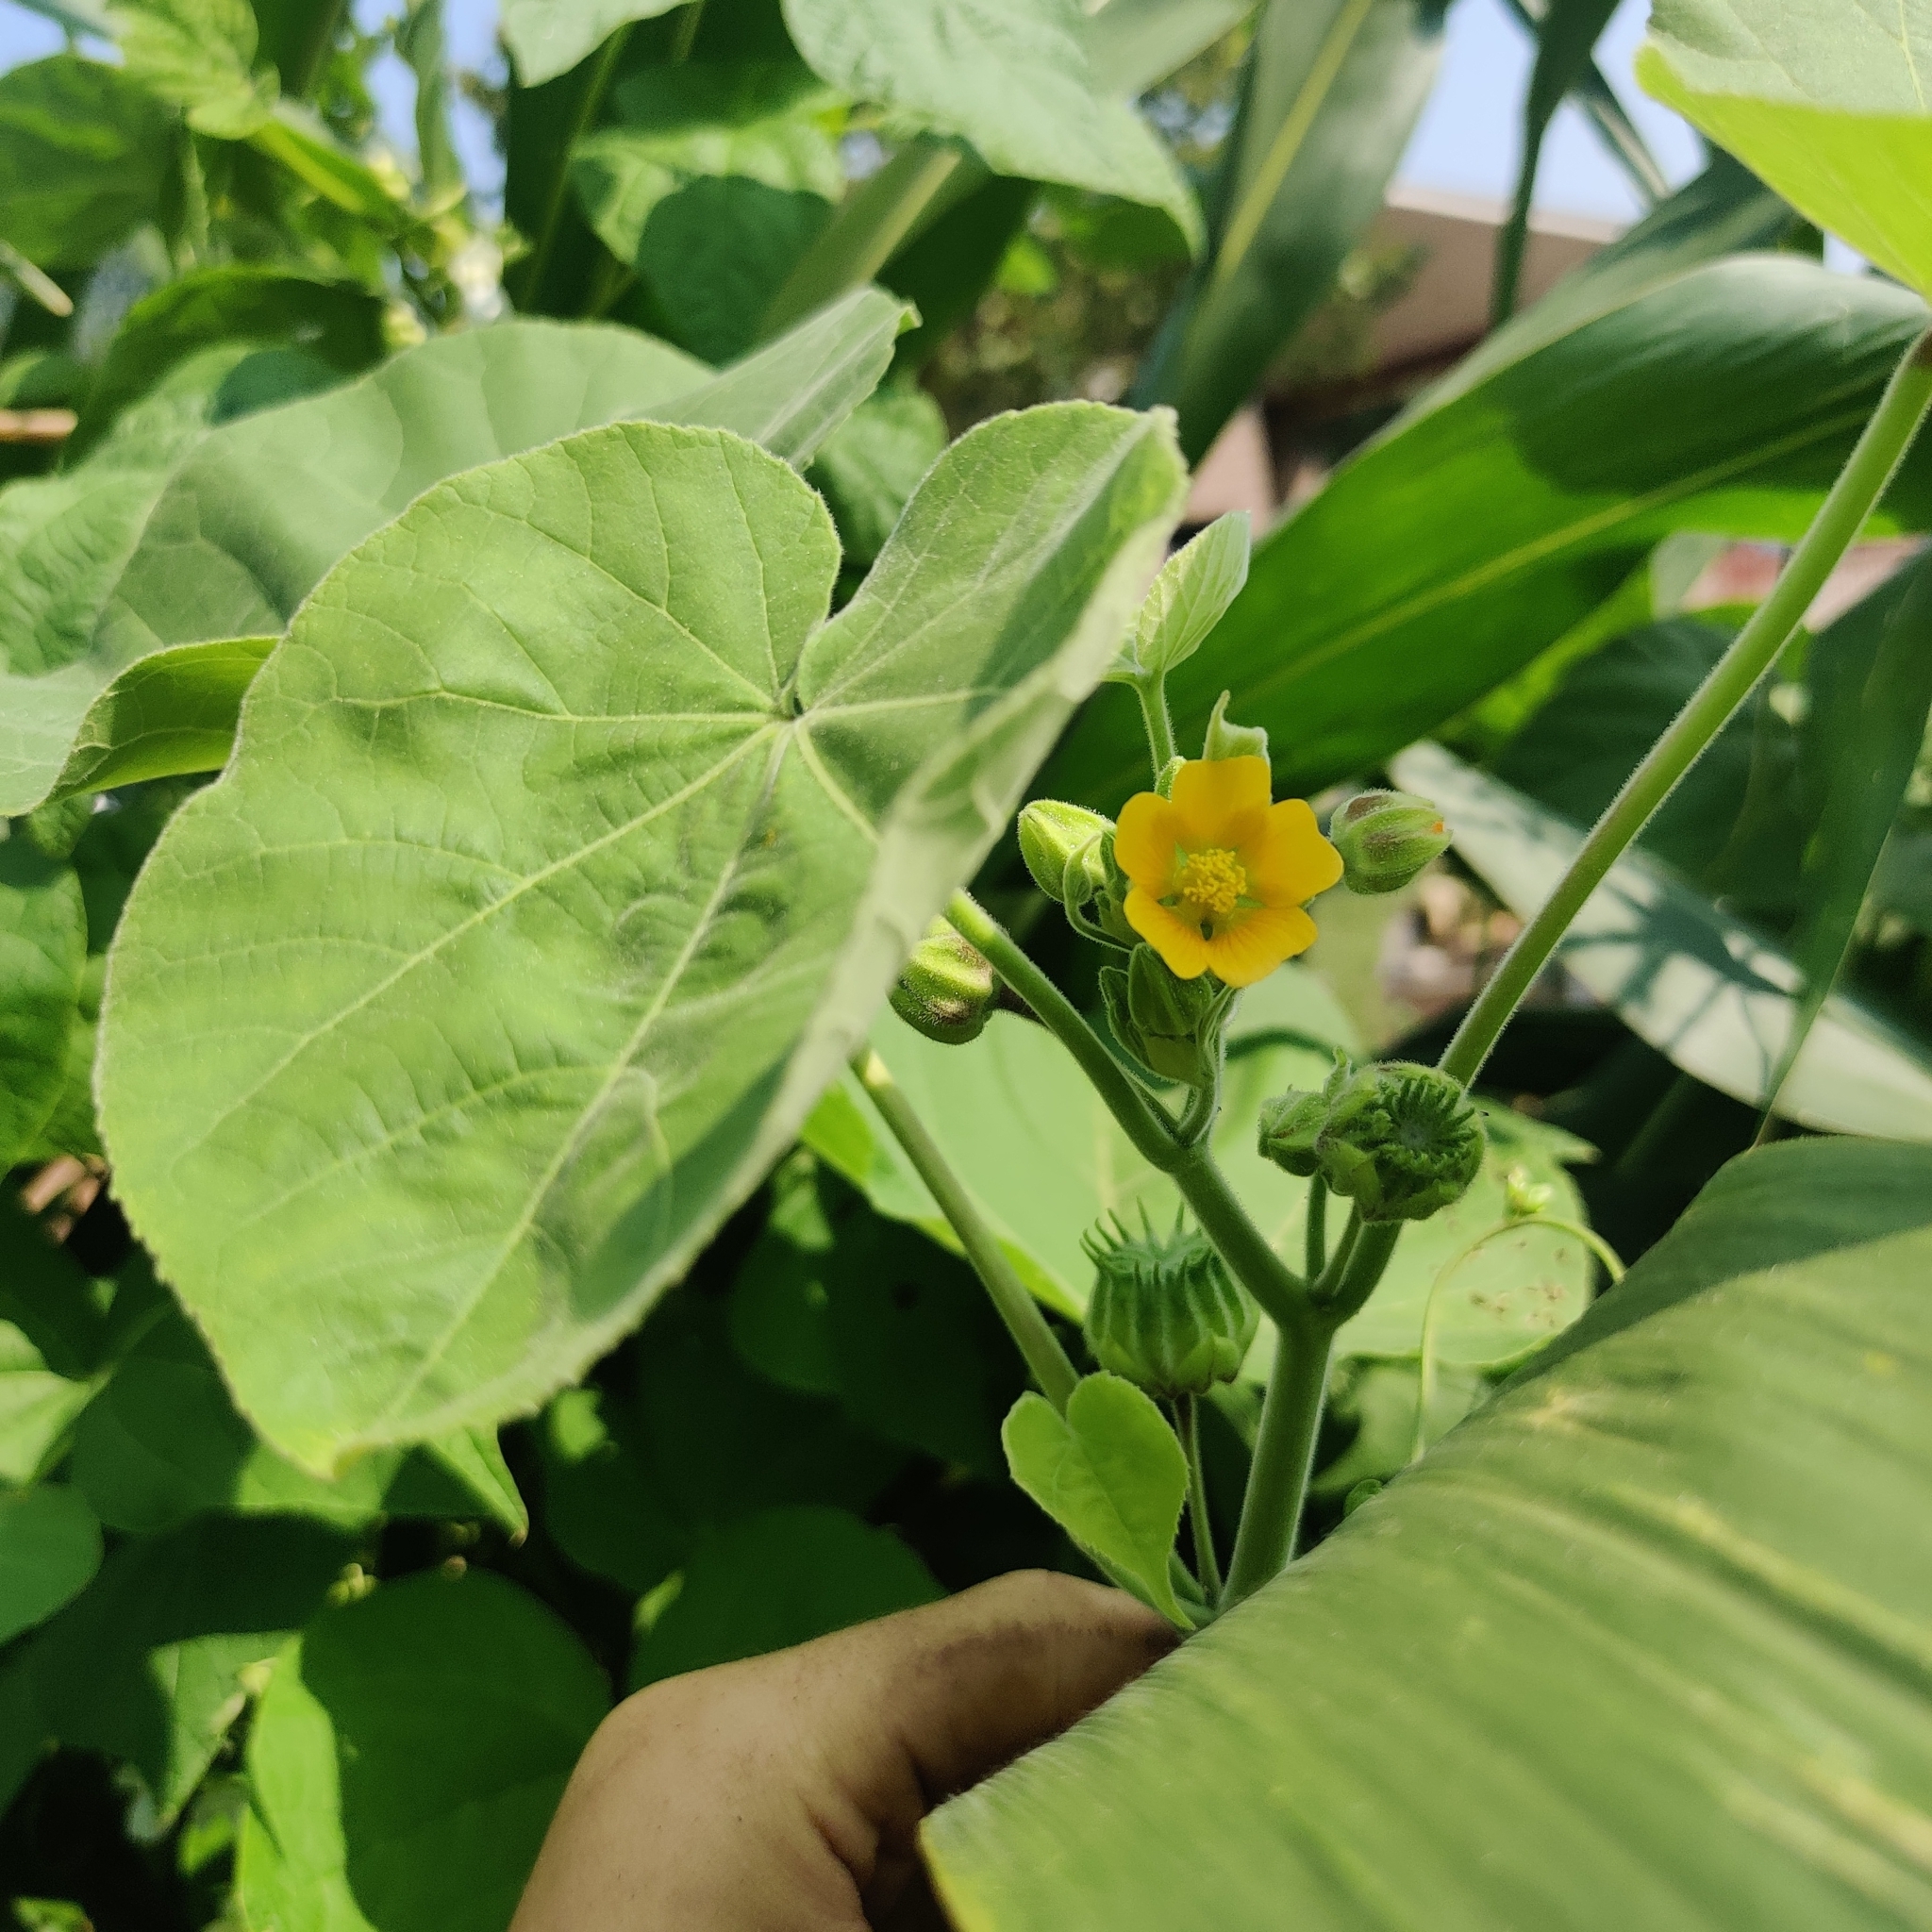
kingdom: Plantae
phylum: Tracheophyta
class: Magnoliopsida
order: Malvales
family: Malvaceae
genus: Abutilon
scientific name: Abutilon theophrasti
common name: Velvetleaf
